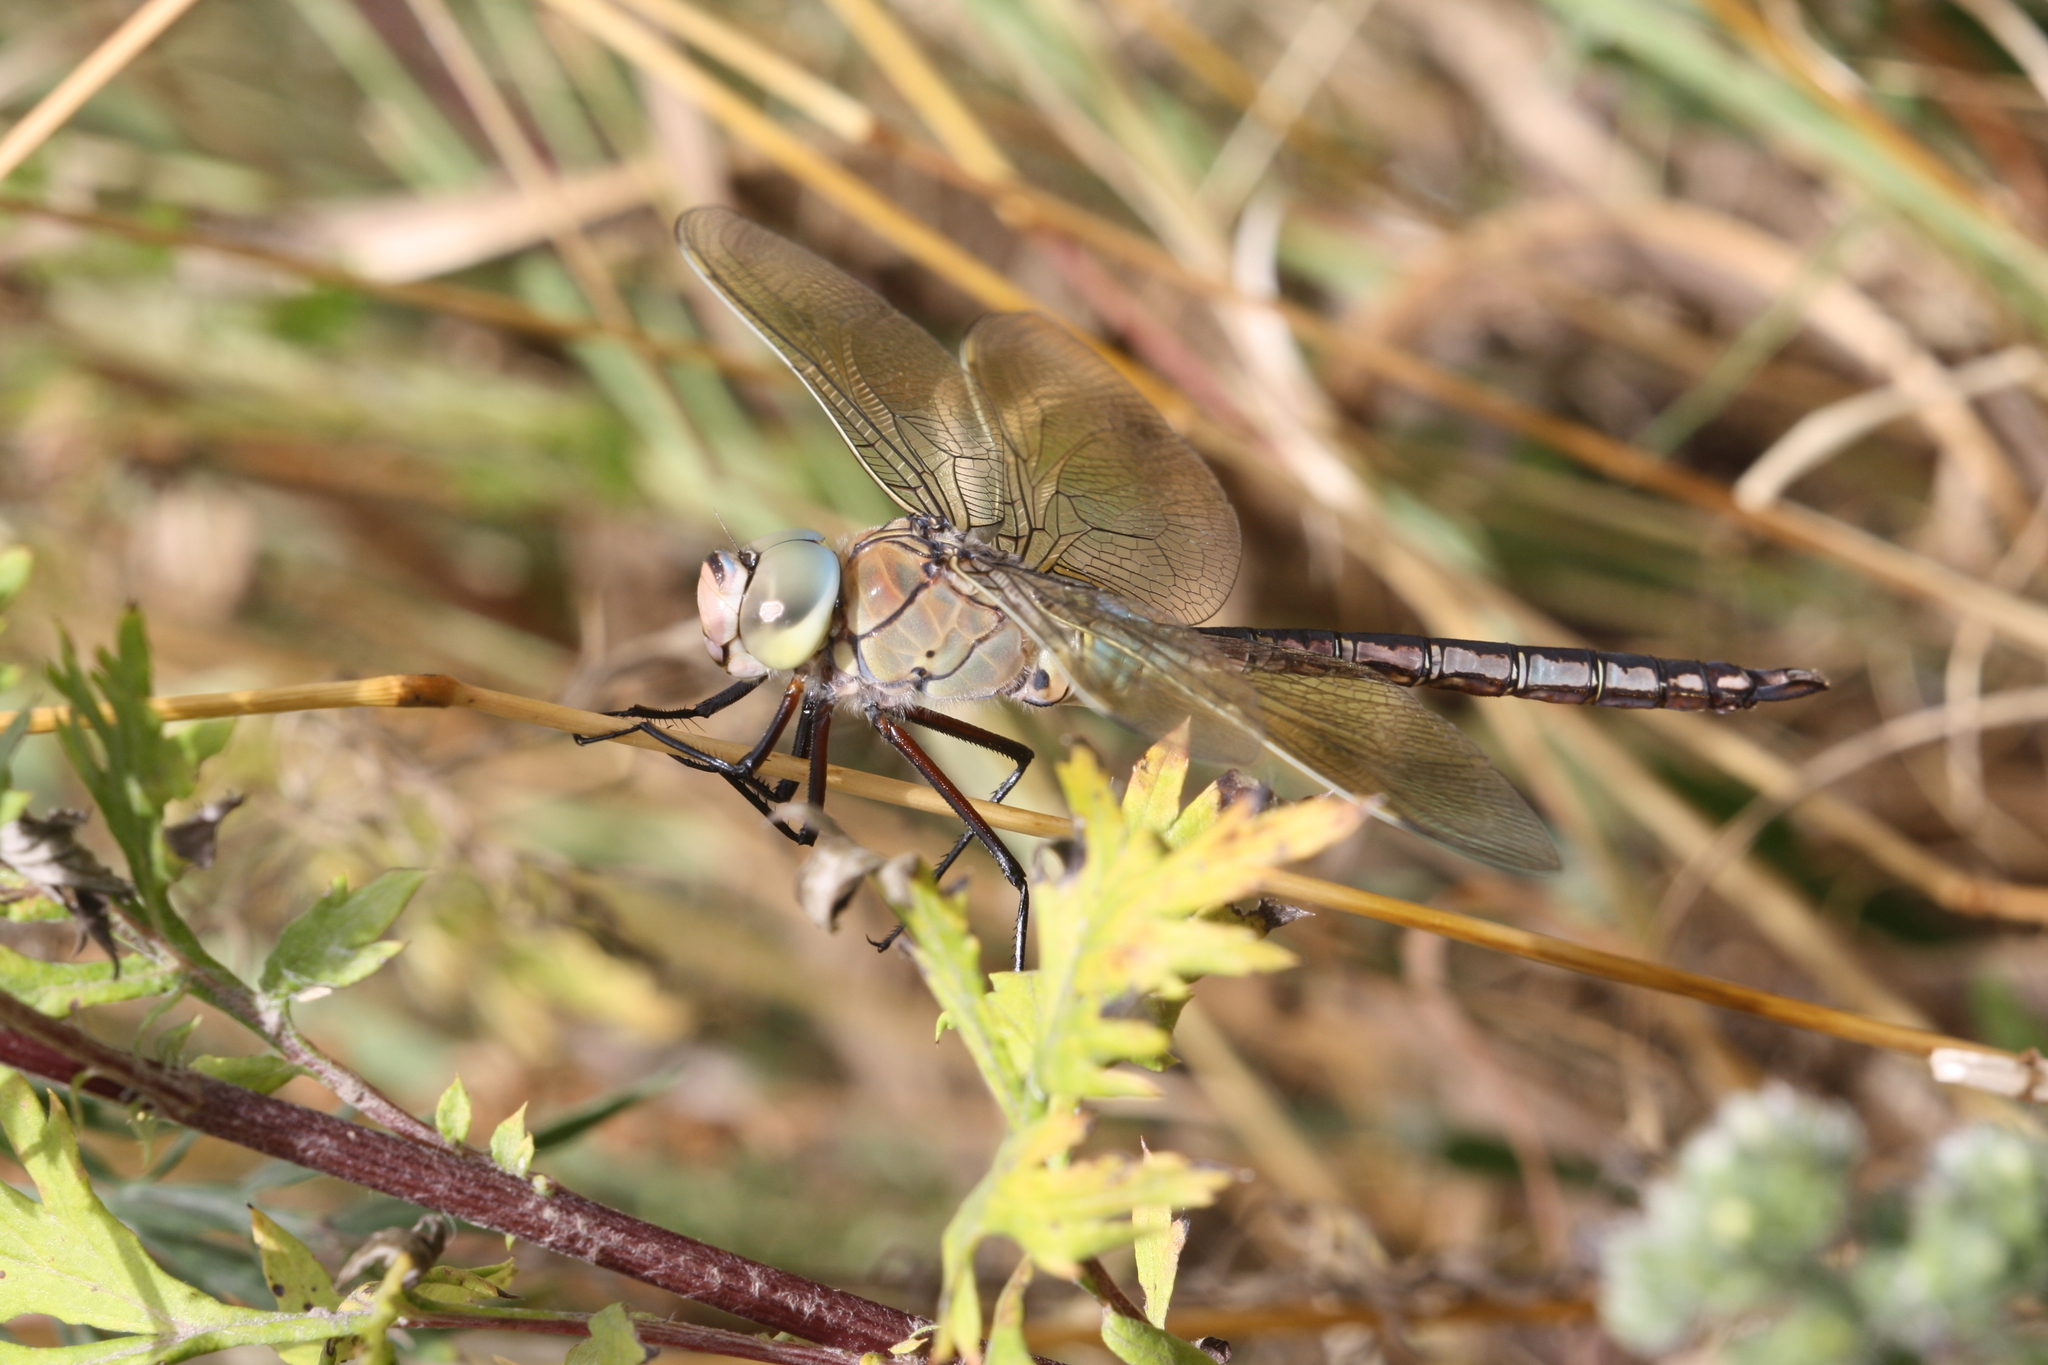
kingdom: Animalia
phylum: Arthropoda
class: Insecta
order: Odonata
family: Aeshnidae
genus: Anax
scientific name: Anax parthenope
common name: Lesser emperor
